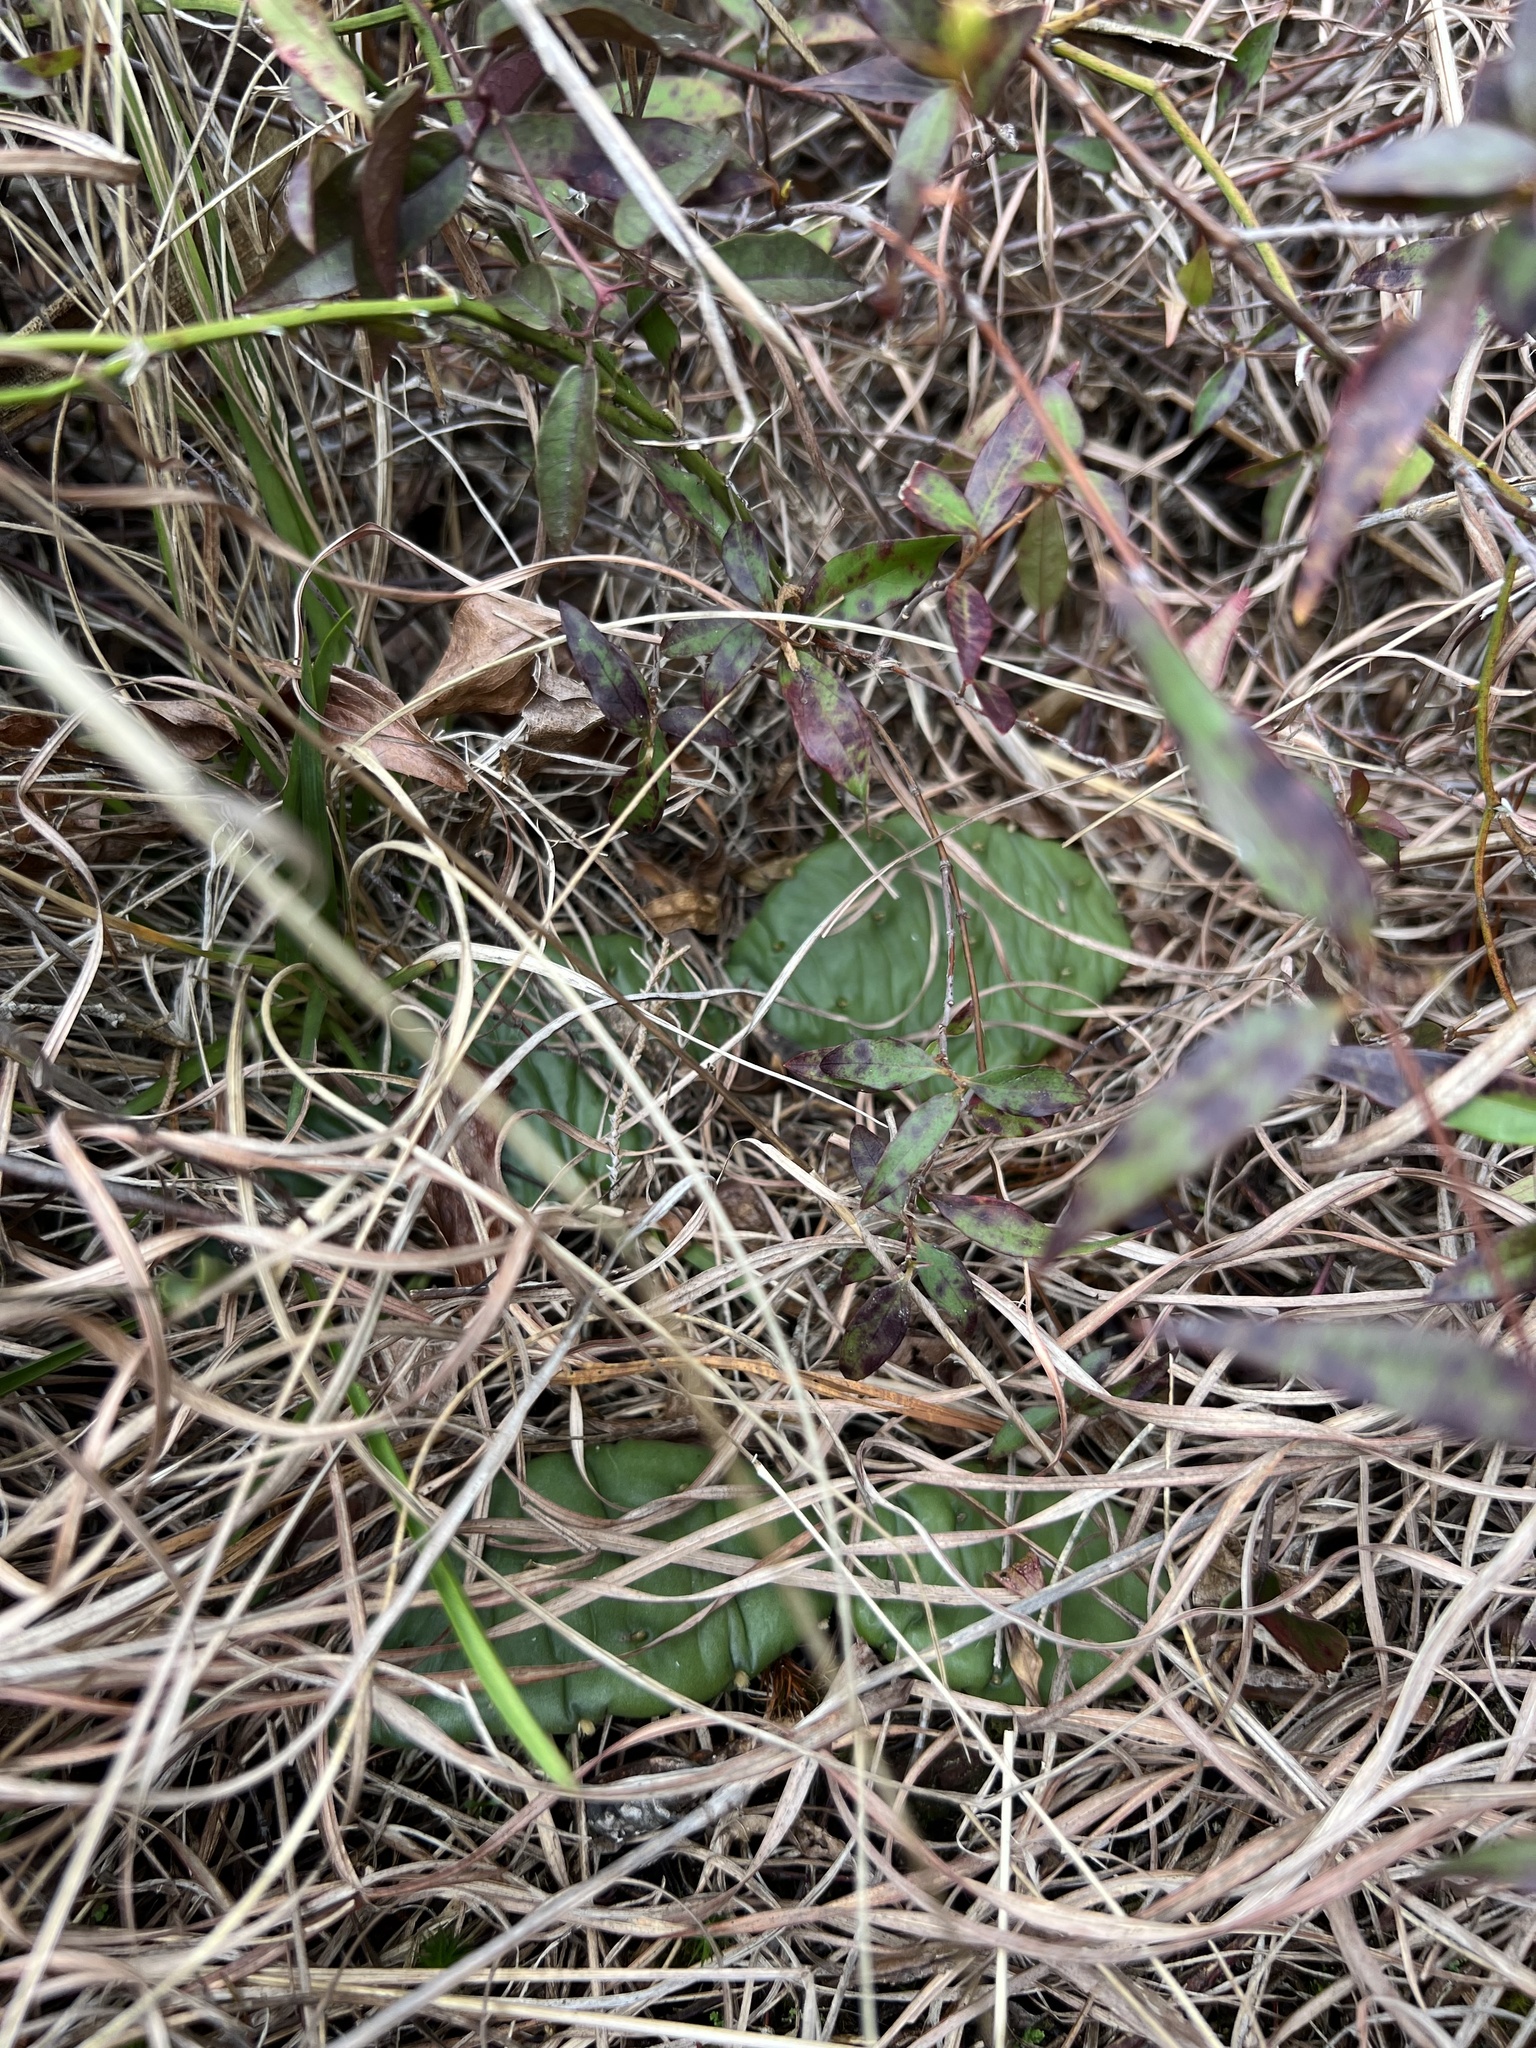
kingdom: Plantae
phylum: Tracheophyta
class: Magnoliopsida
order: Caryophyllales
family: Cactaceae
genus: Opuntia
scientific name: Opuntia mesacantha
